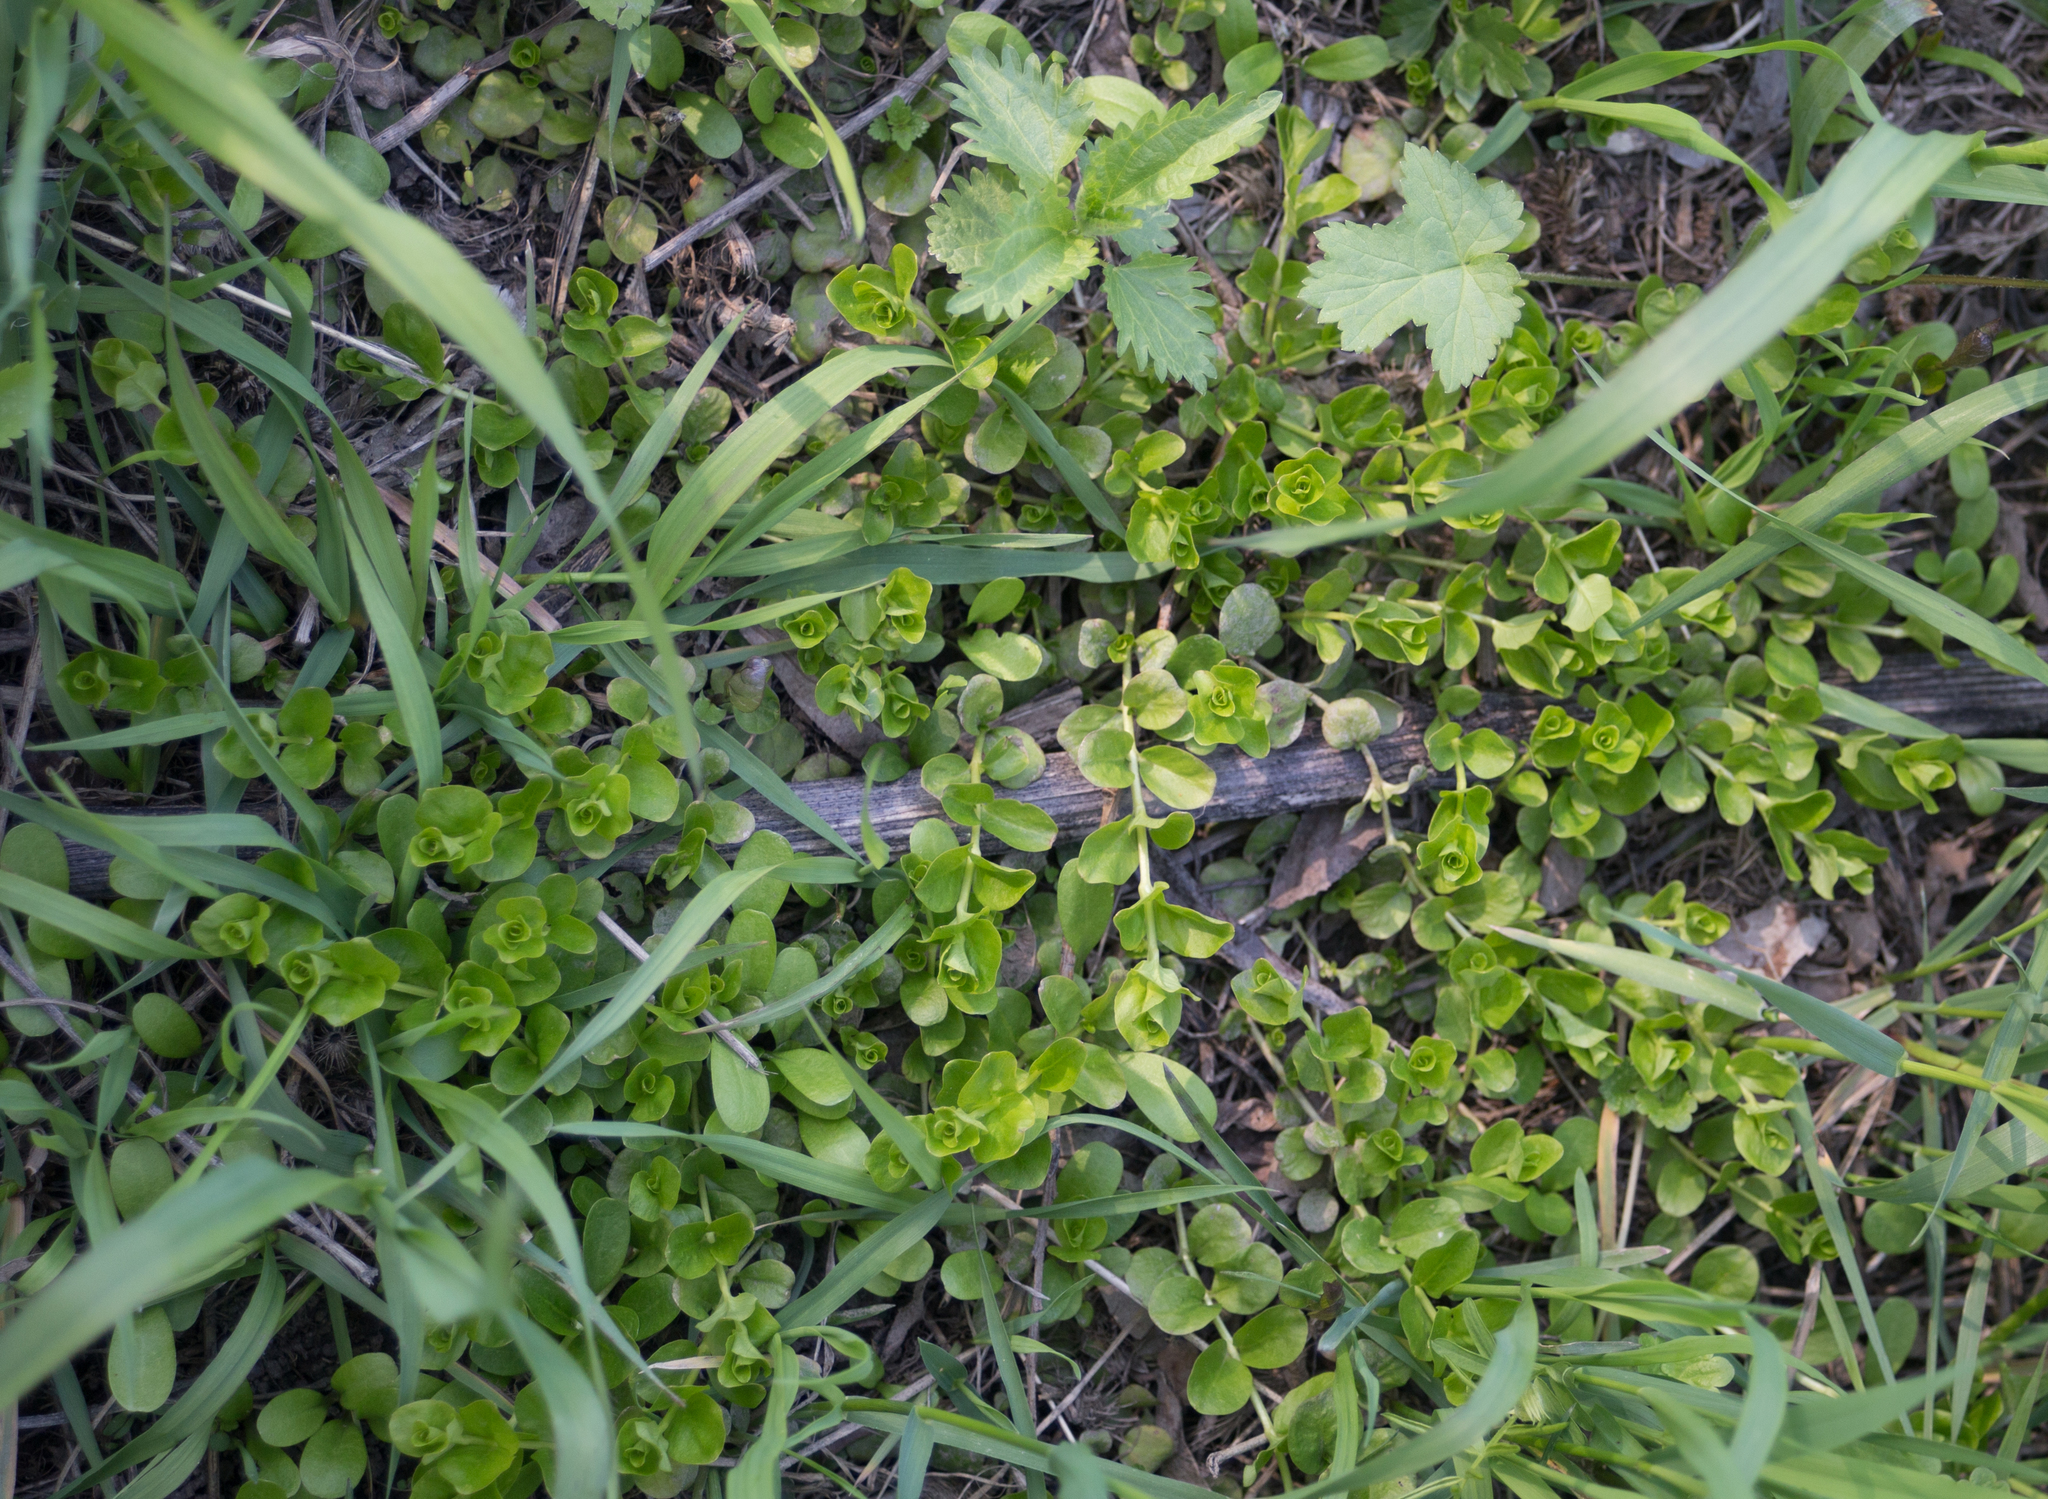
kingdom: Plantae
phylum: Tracheophyta
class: Magnoliopsida
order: Ericales
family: Primulaceae
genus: Lysimachia
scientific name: Lysimachia nummularia
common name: Moneywort
